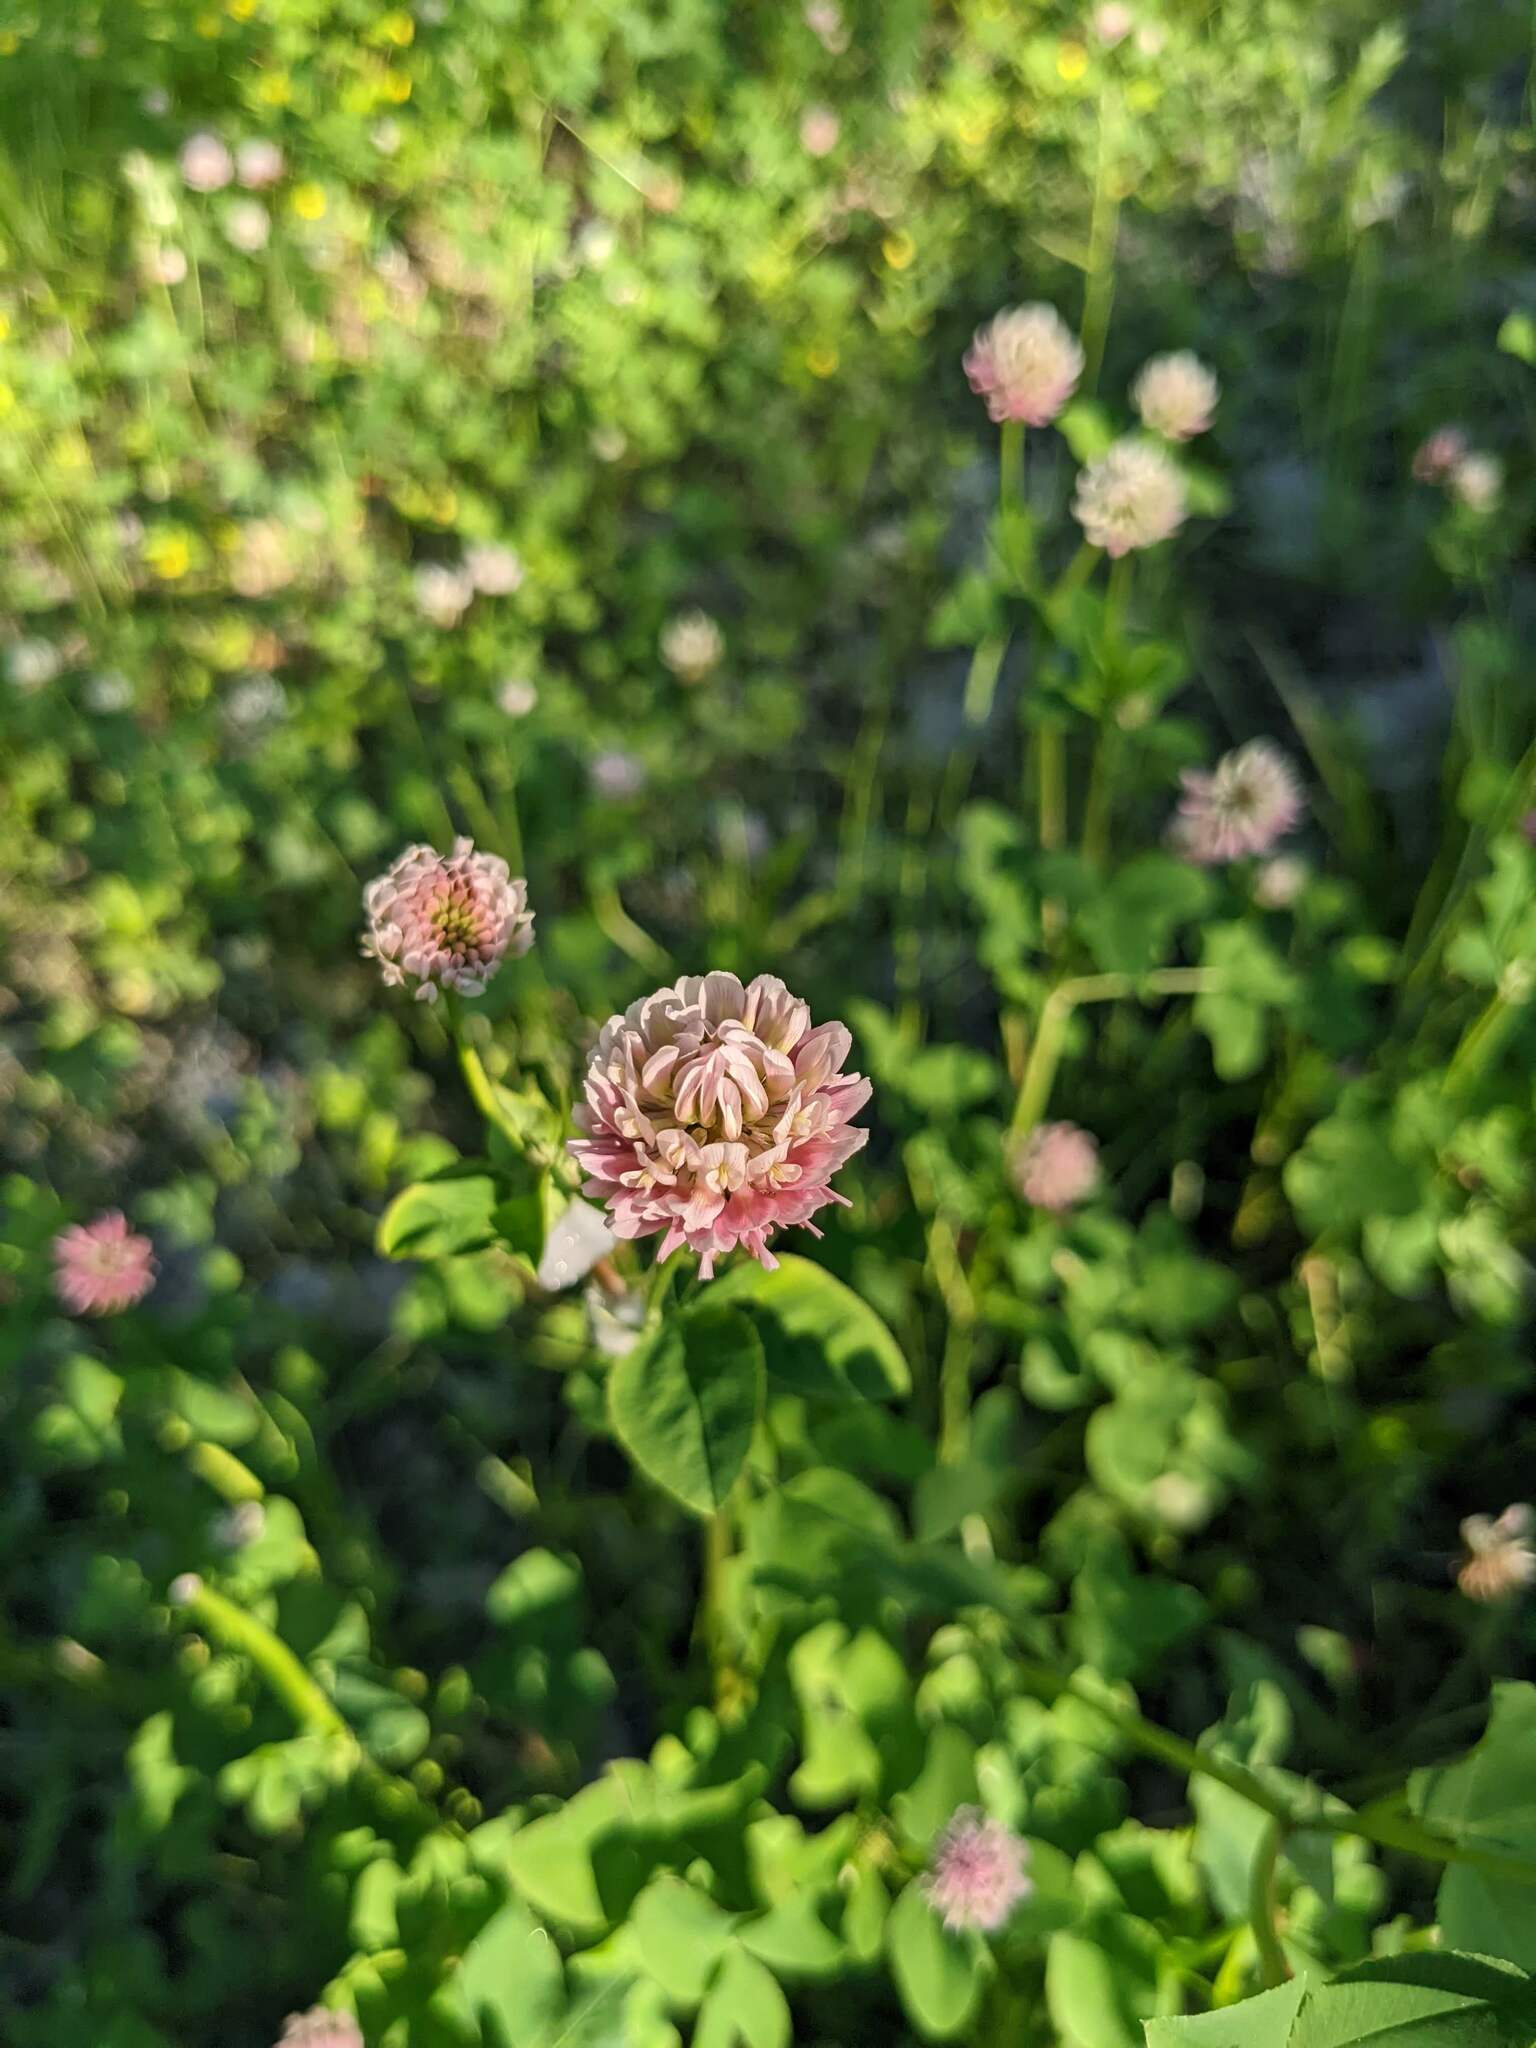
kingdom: Plantae
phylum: Tracheophyta
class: Magnoliopsida
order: Fabales
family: Fabaceae
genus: Trifolium
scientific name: Trifolium pratense
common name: Red clover
